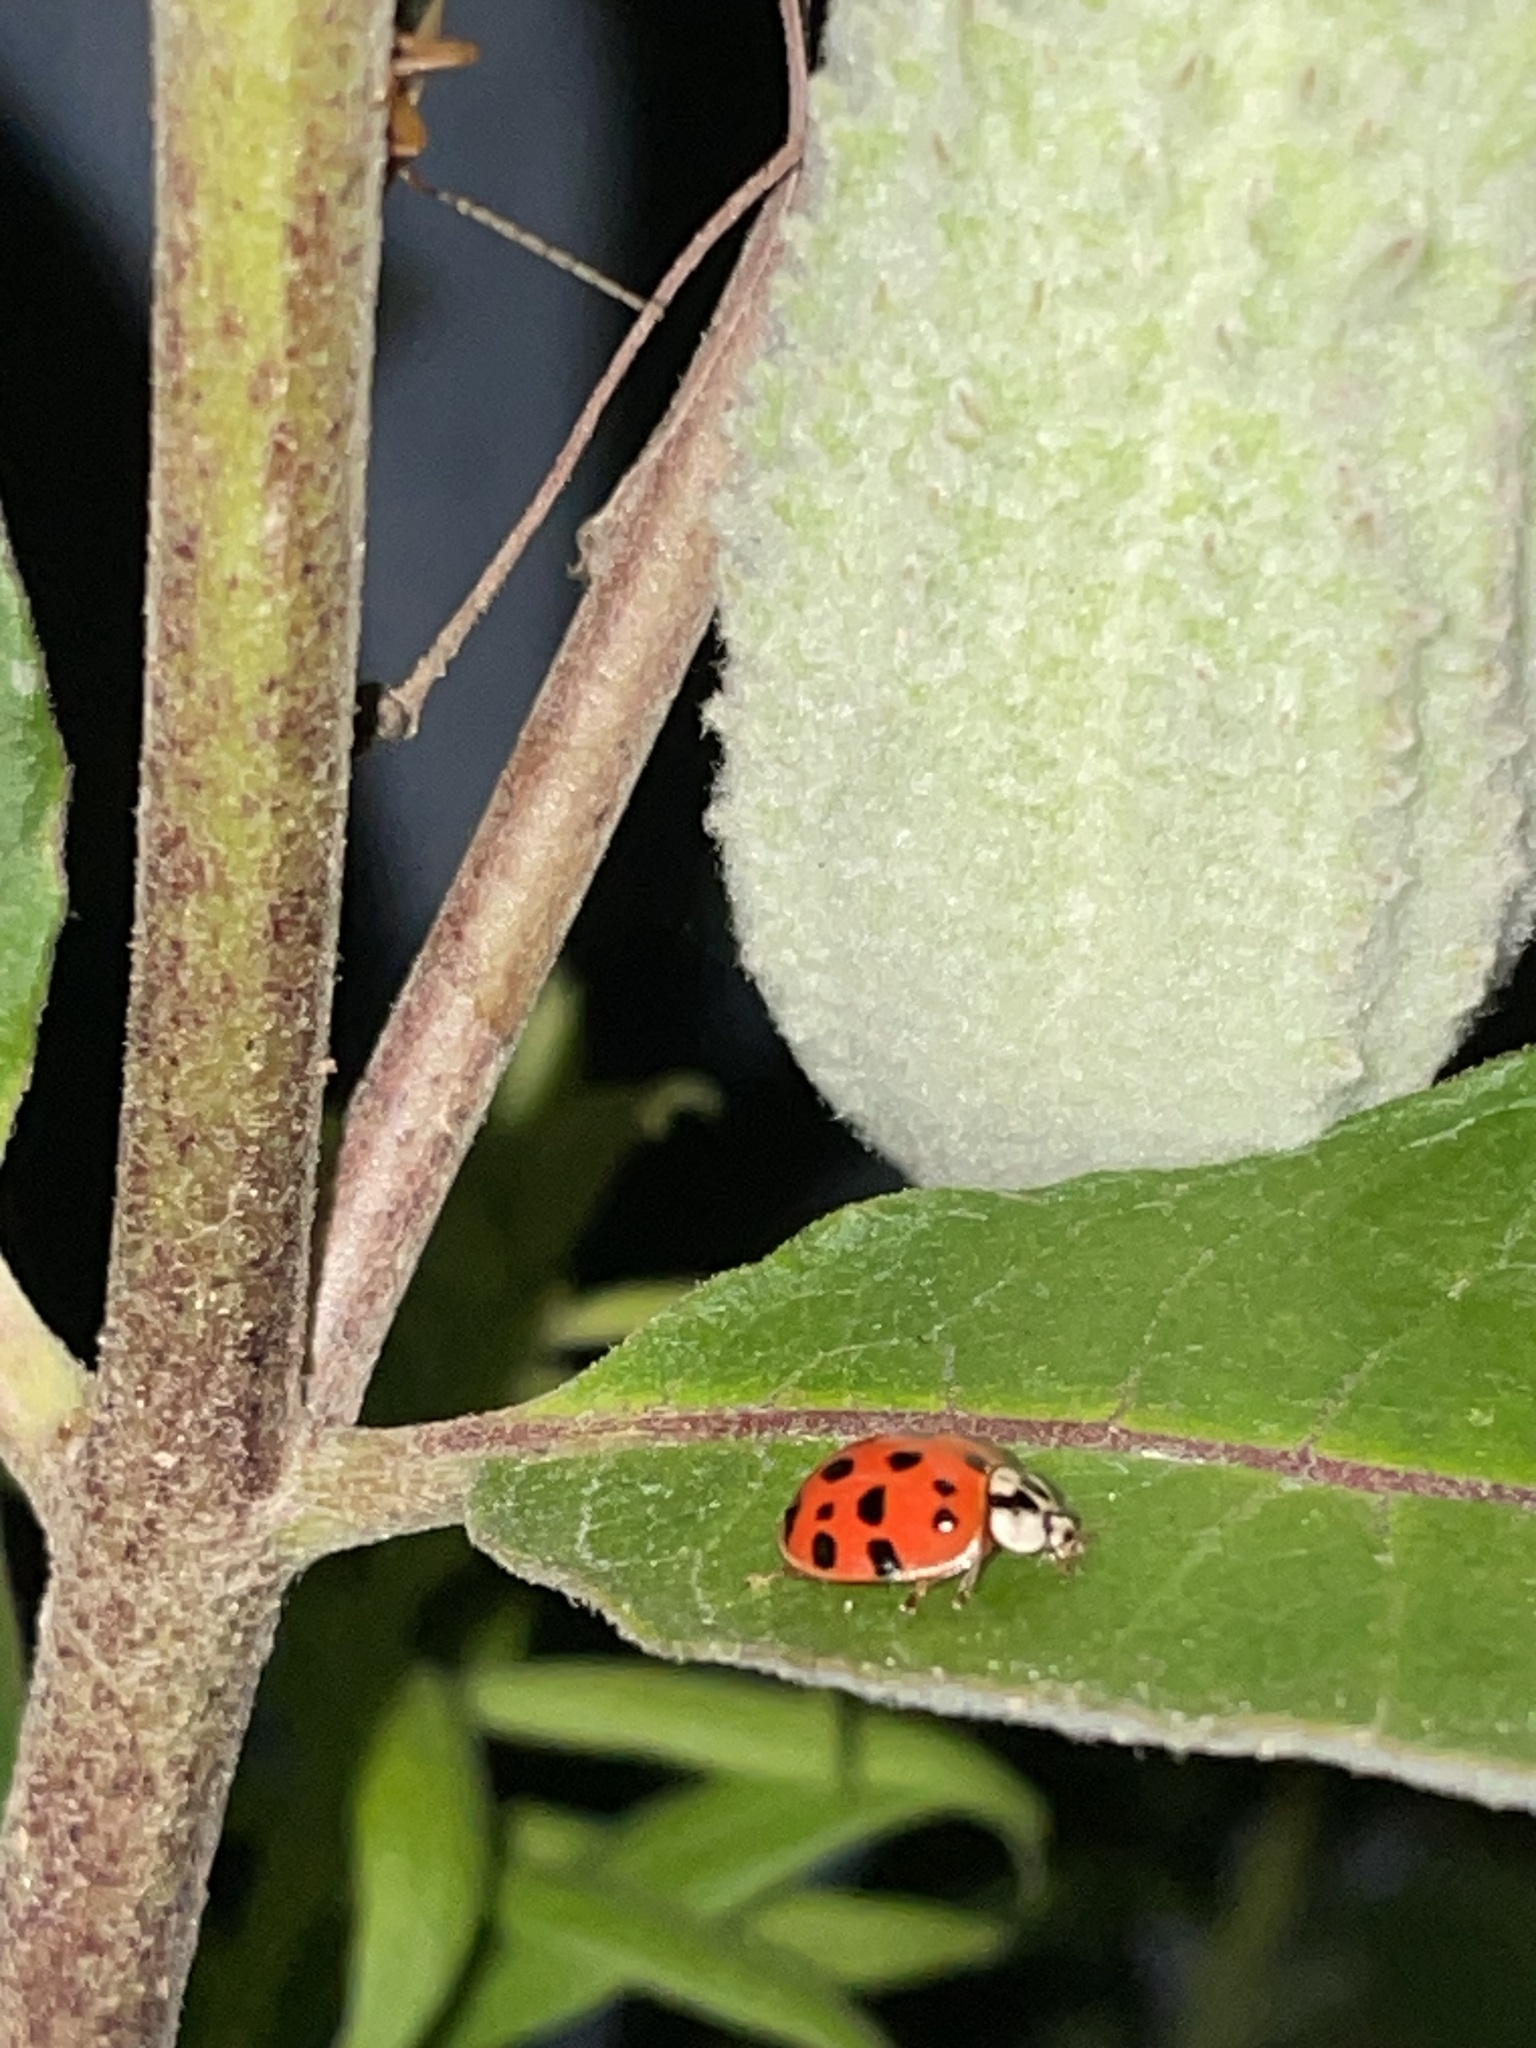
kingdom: Animalia
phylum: Arthropoda
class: Insecta
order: Coleoptera
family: Coccinellidae
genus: Harmonia
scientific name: Harmonia axyridis
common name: Harlequin ladybird
